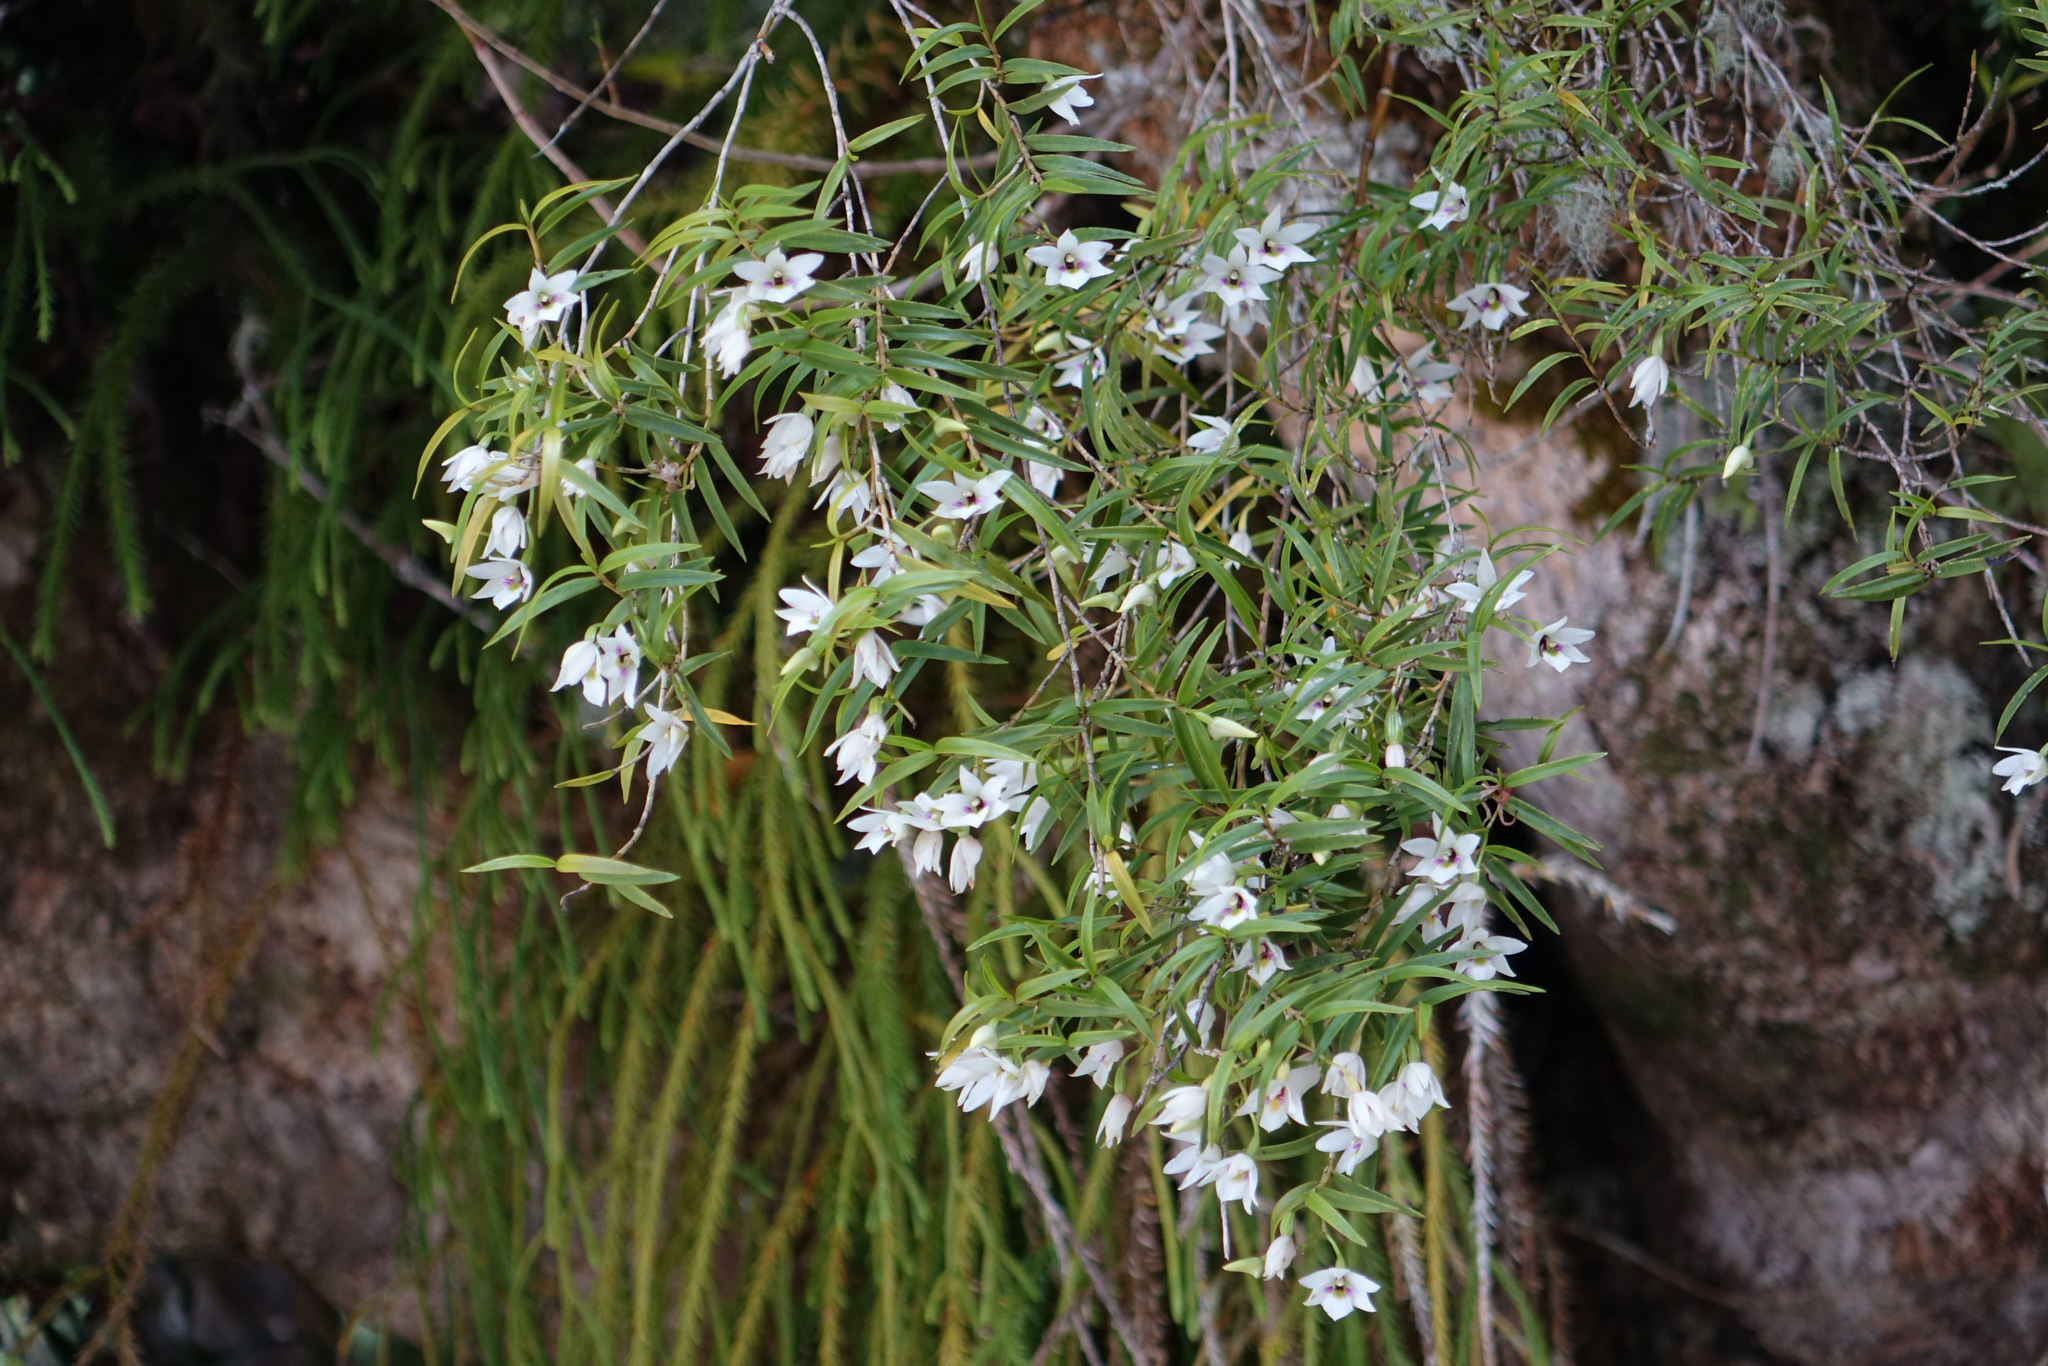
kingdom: Plantae
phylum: Tracheophyta
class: Liliopsida
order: Asparagales
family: Orchidaceae
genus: Dendrobium
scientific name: Dendrobium cunninghamii
